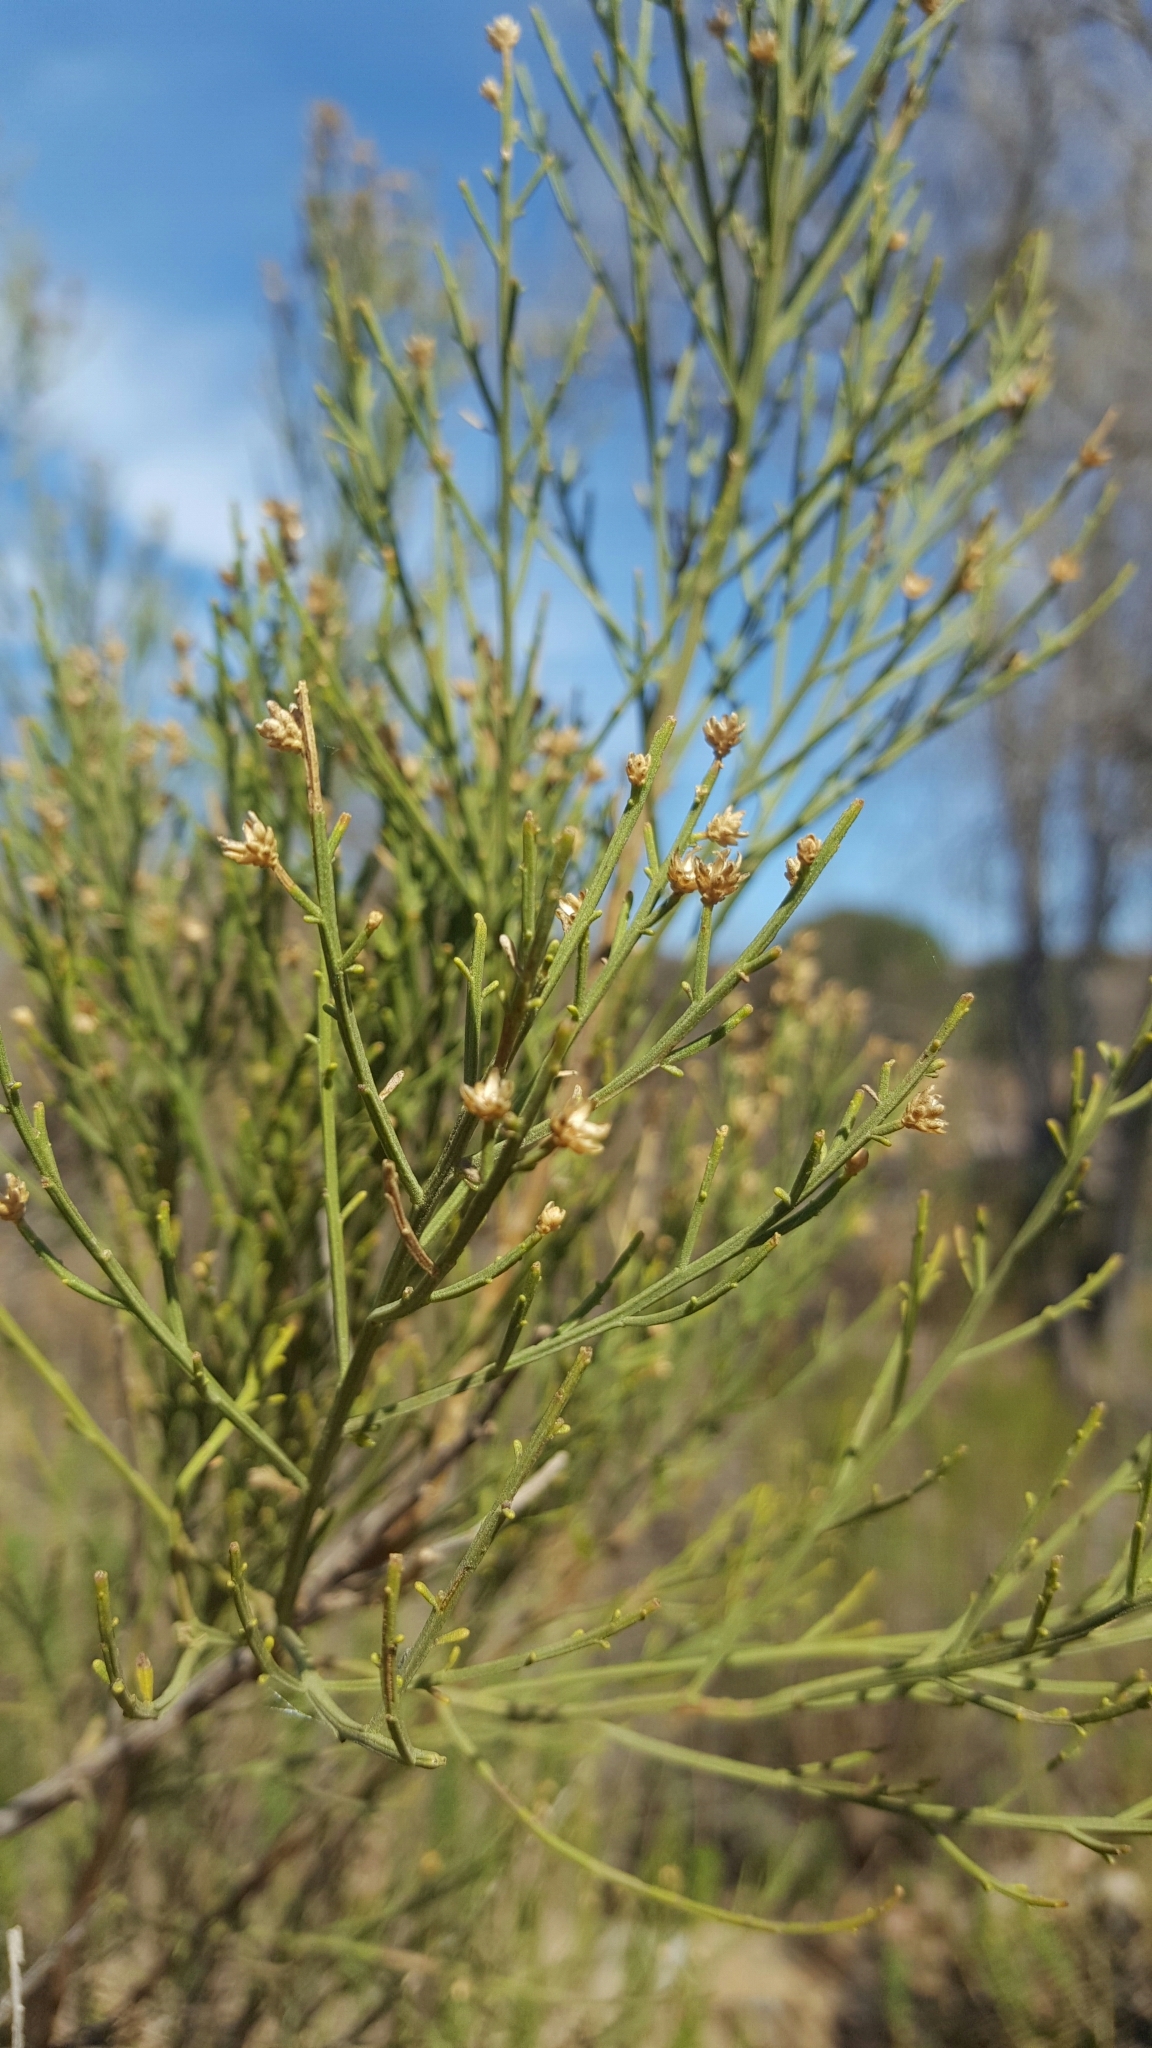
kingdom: Plantae
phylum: Tracheophyta
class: Magnoliopsida
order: Asterales
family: Asteraceae
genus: Baccharis
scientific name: Baccharis sarothroides
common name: Desert-broom
